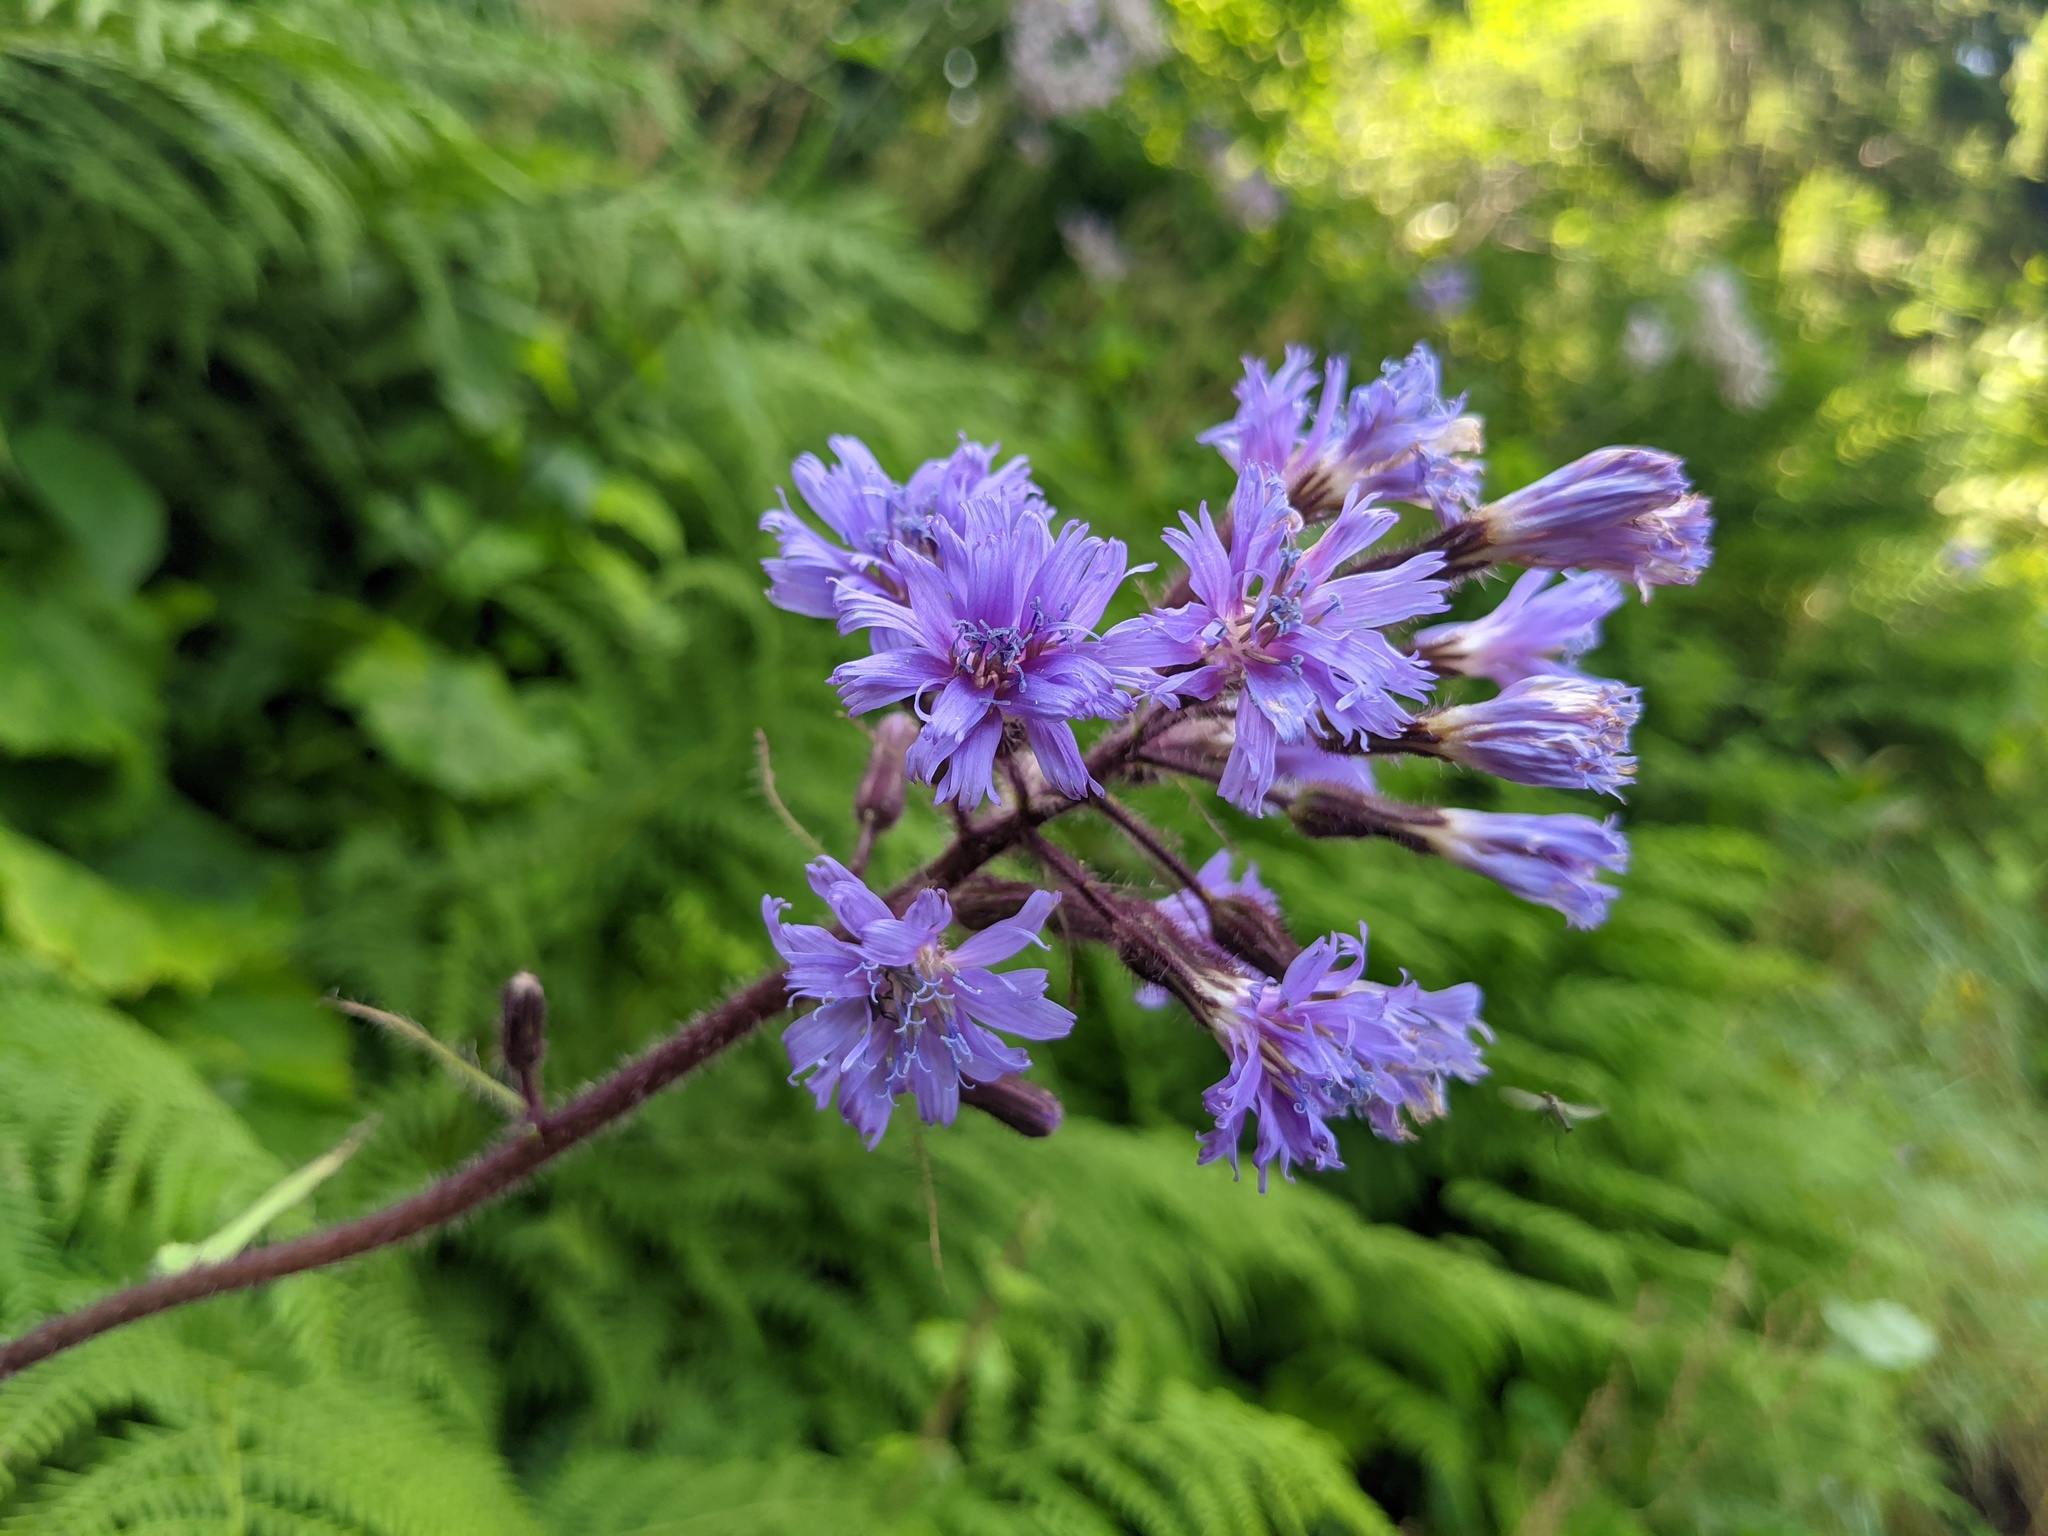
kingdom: Plantae
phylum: Tracheophyta
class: Magnoliopsida
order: Asterales
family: Asteraceae
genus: Cicerbita
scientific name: Cicerbita alpina
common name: Alpine blue-sow-thistle
